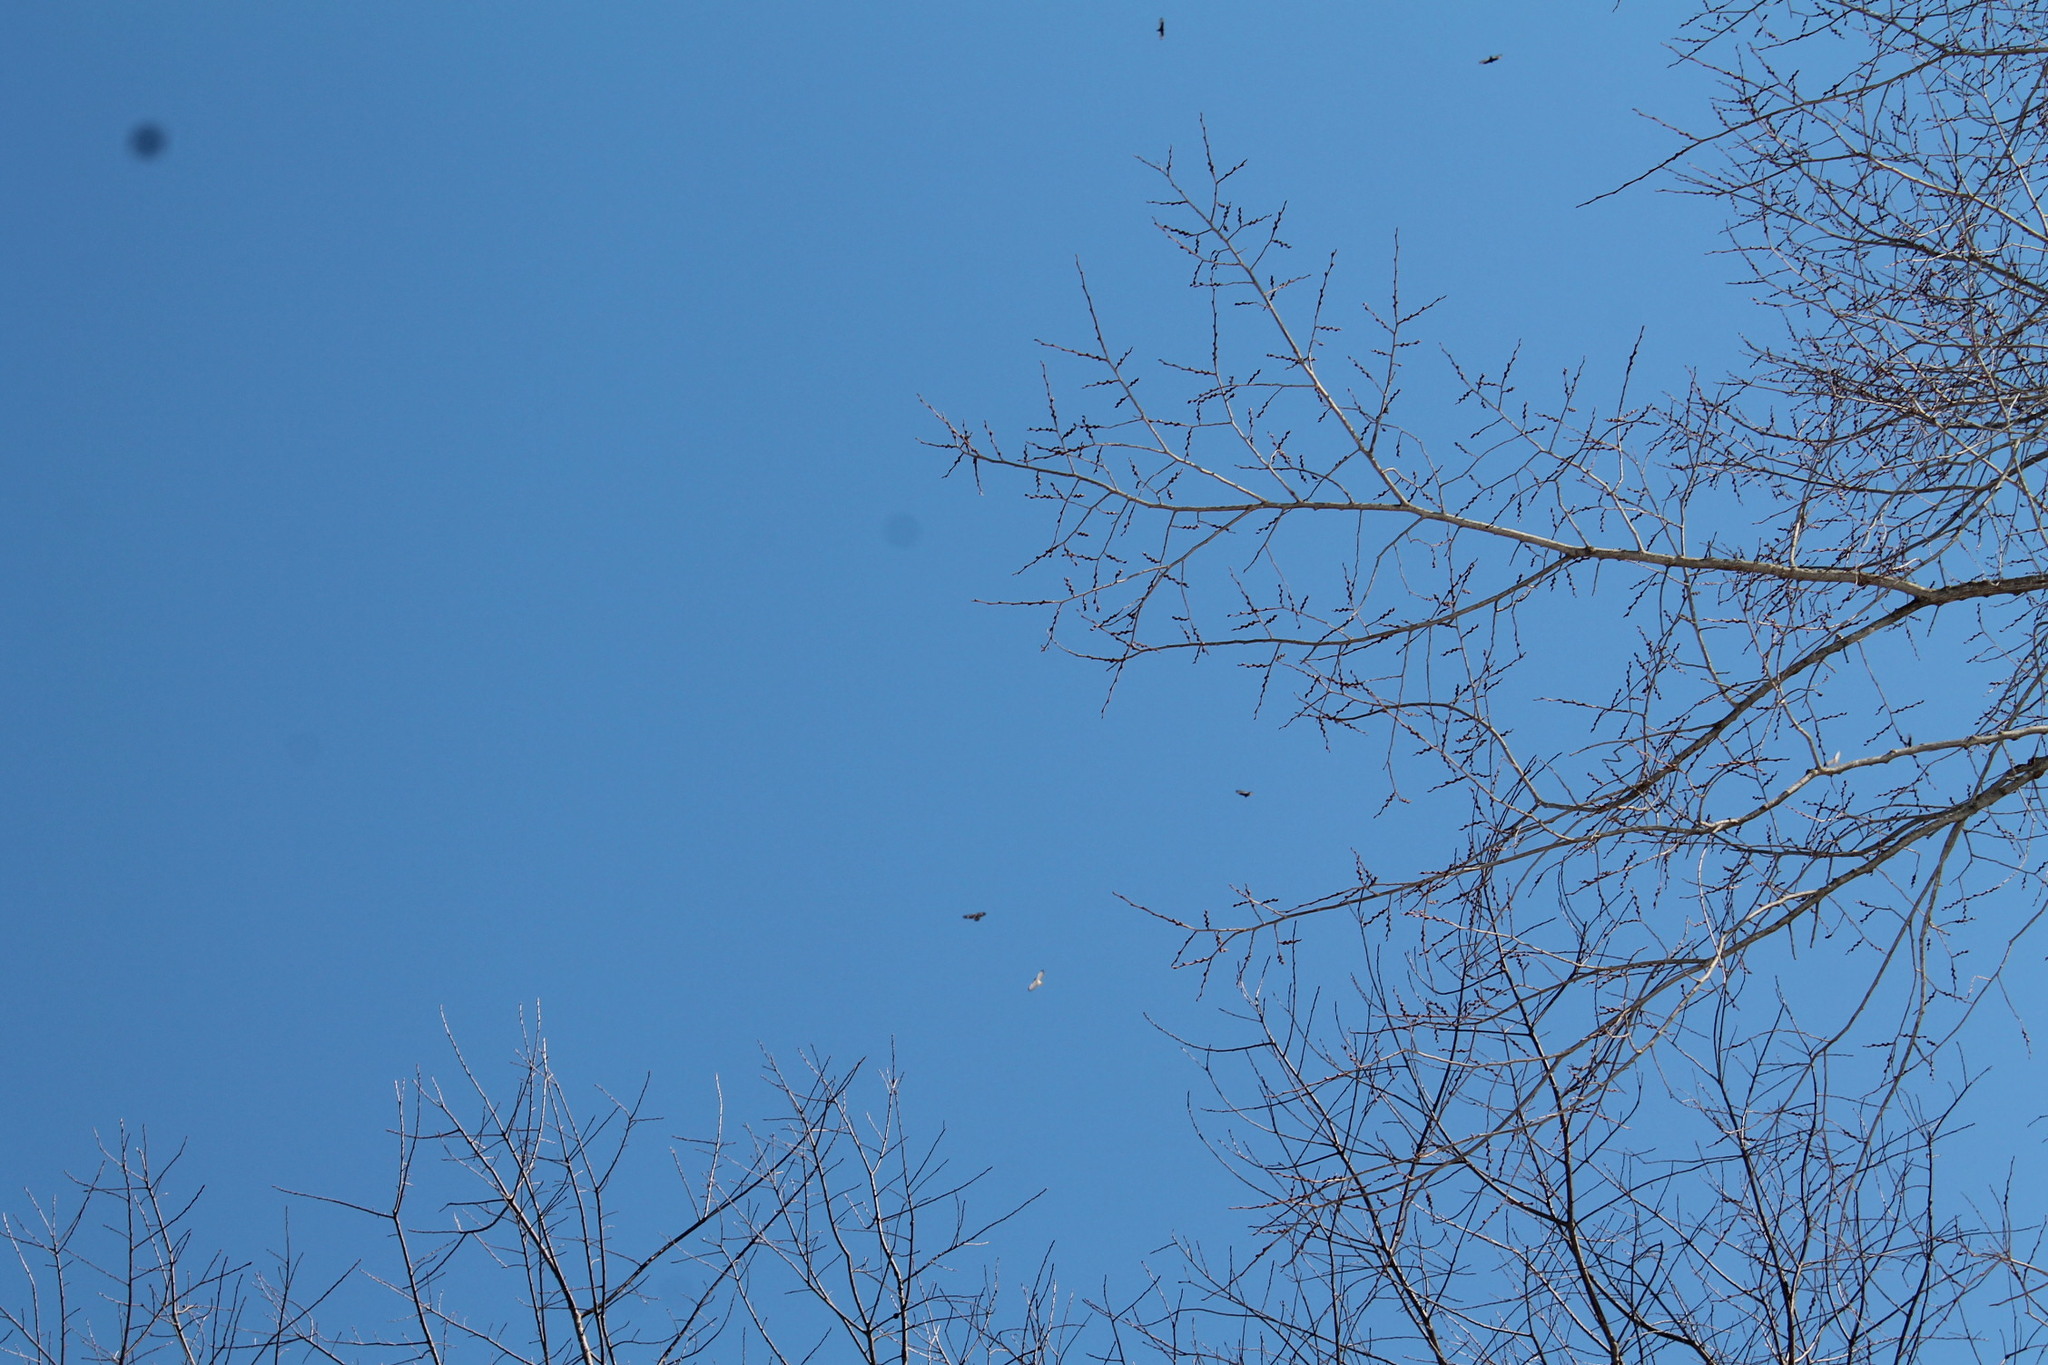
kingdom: Animalia
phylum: Chordata
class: Aves
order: Accipitriformes
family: Accipitridae
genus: Buteo
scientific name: Buteo jamaicensis
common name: Red-tailed hawk
